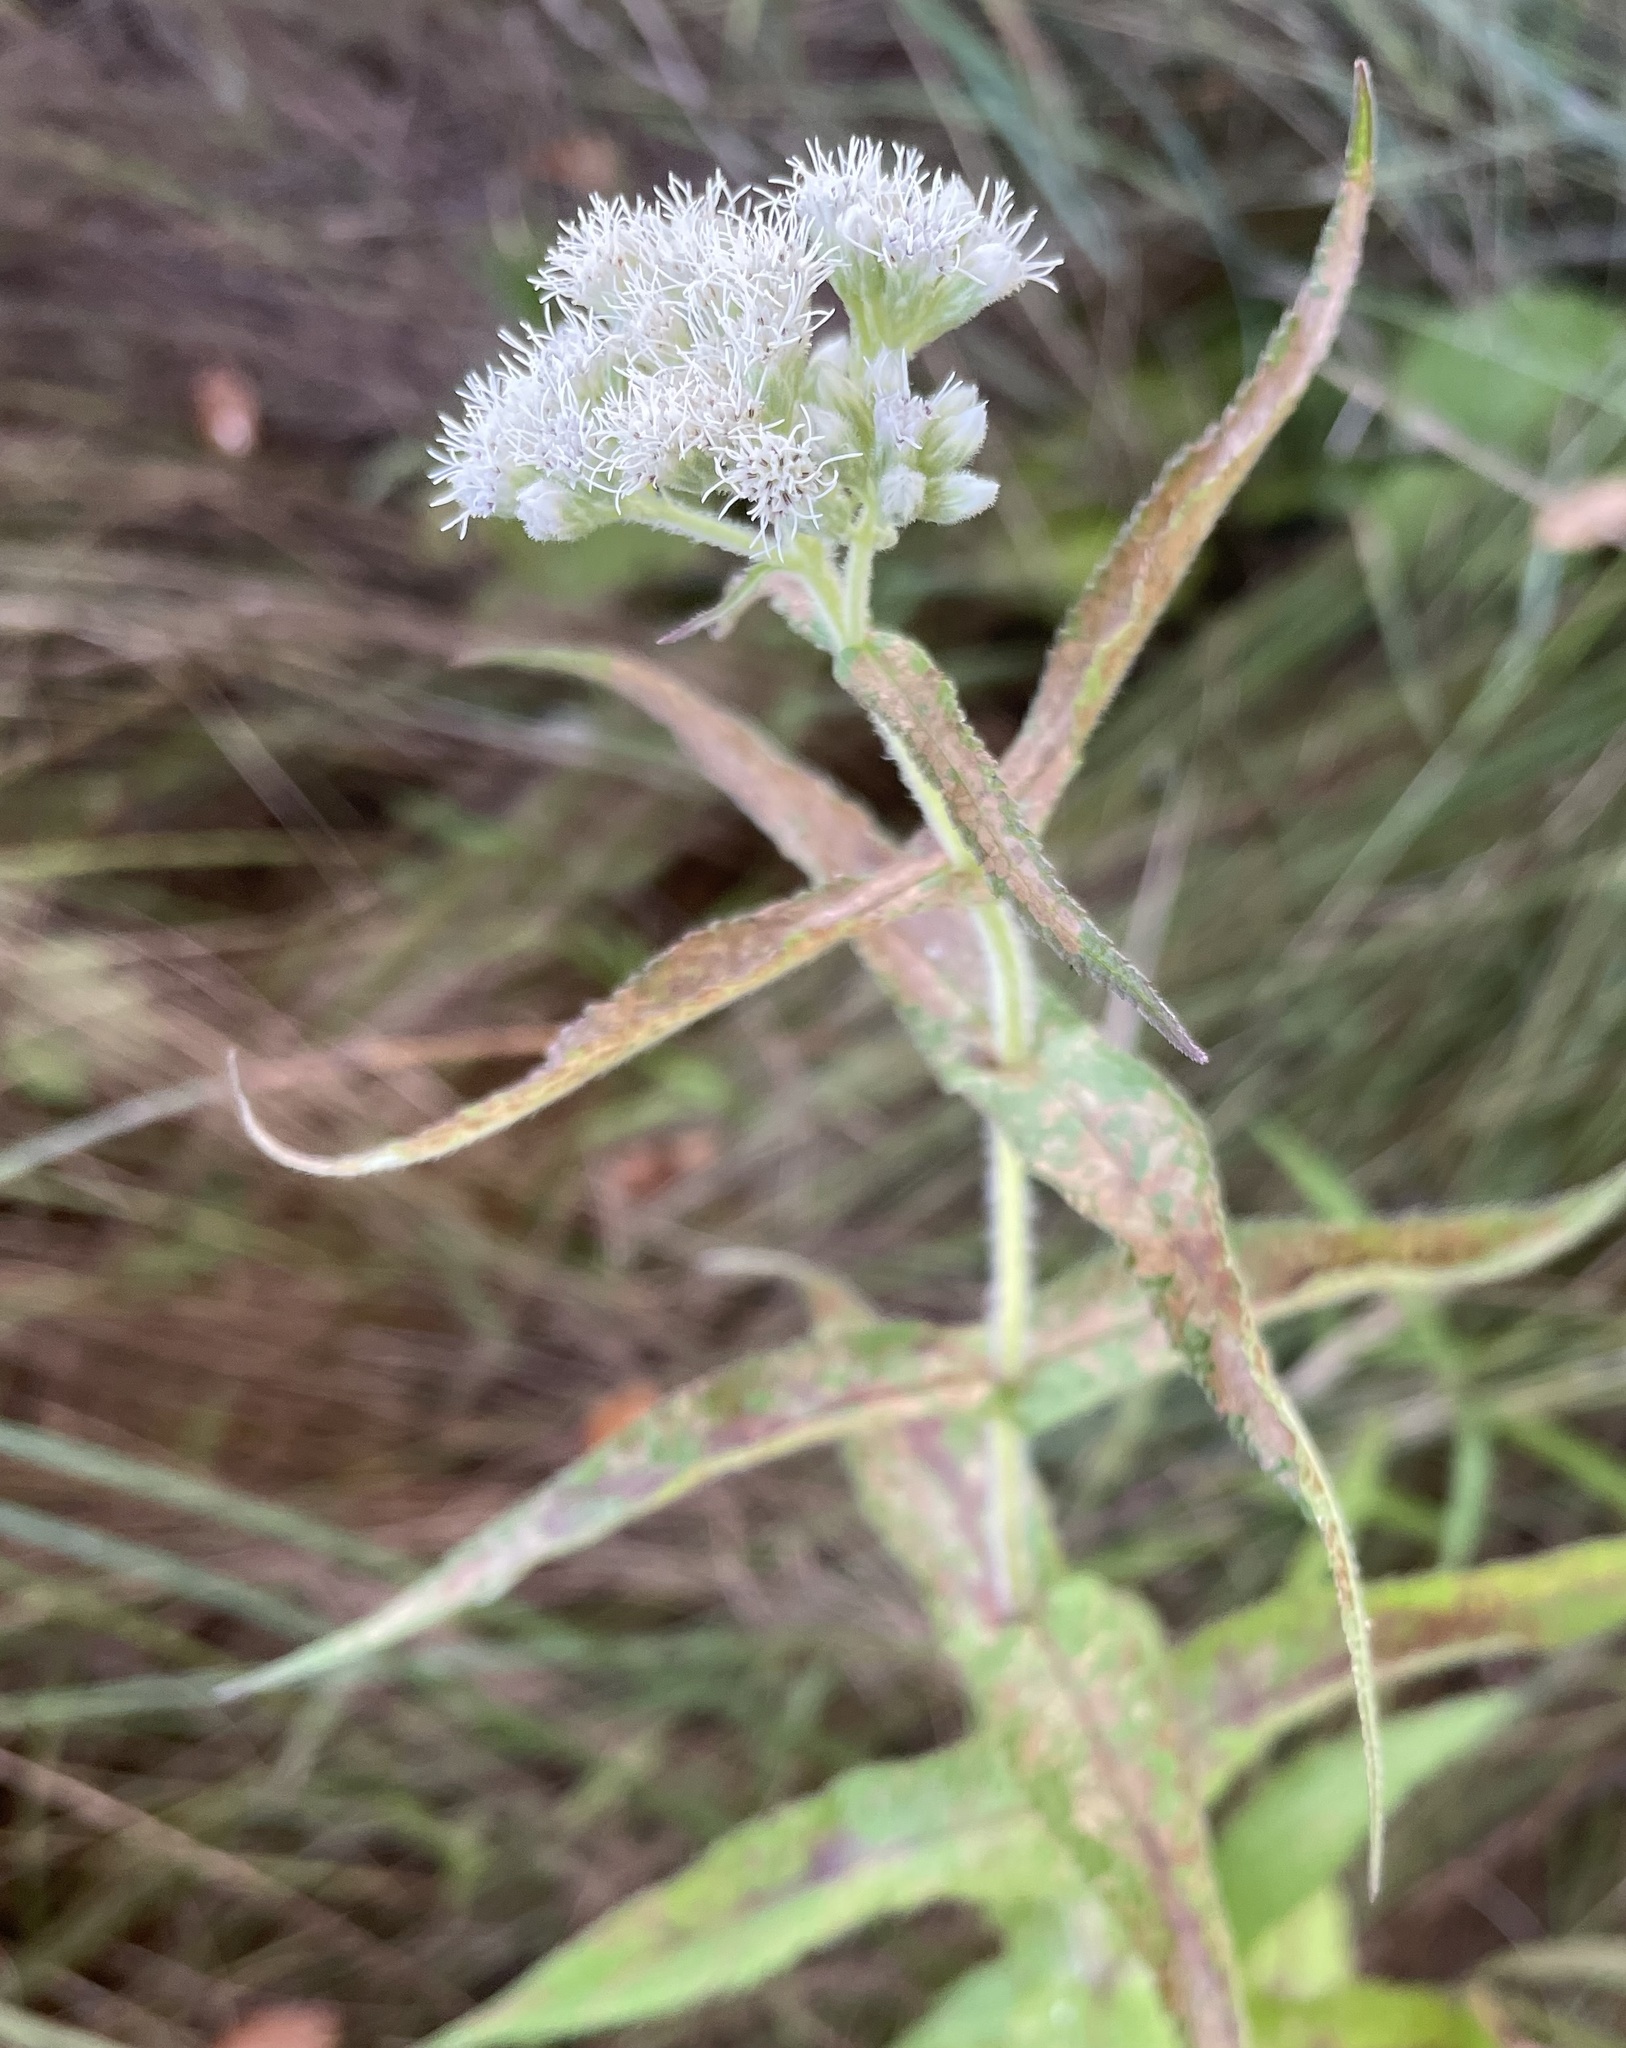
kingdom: Plantae
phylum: Tracheophyta
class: Magnoliopsida
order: Asterales
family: Asteraceae
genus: Eupatorium
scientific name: Eupatorium perfoliatum
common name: Boneset
